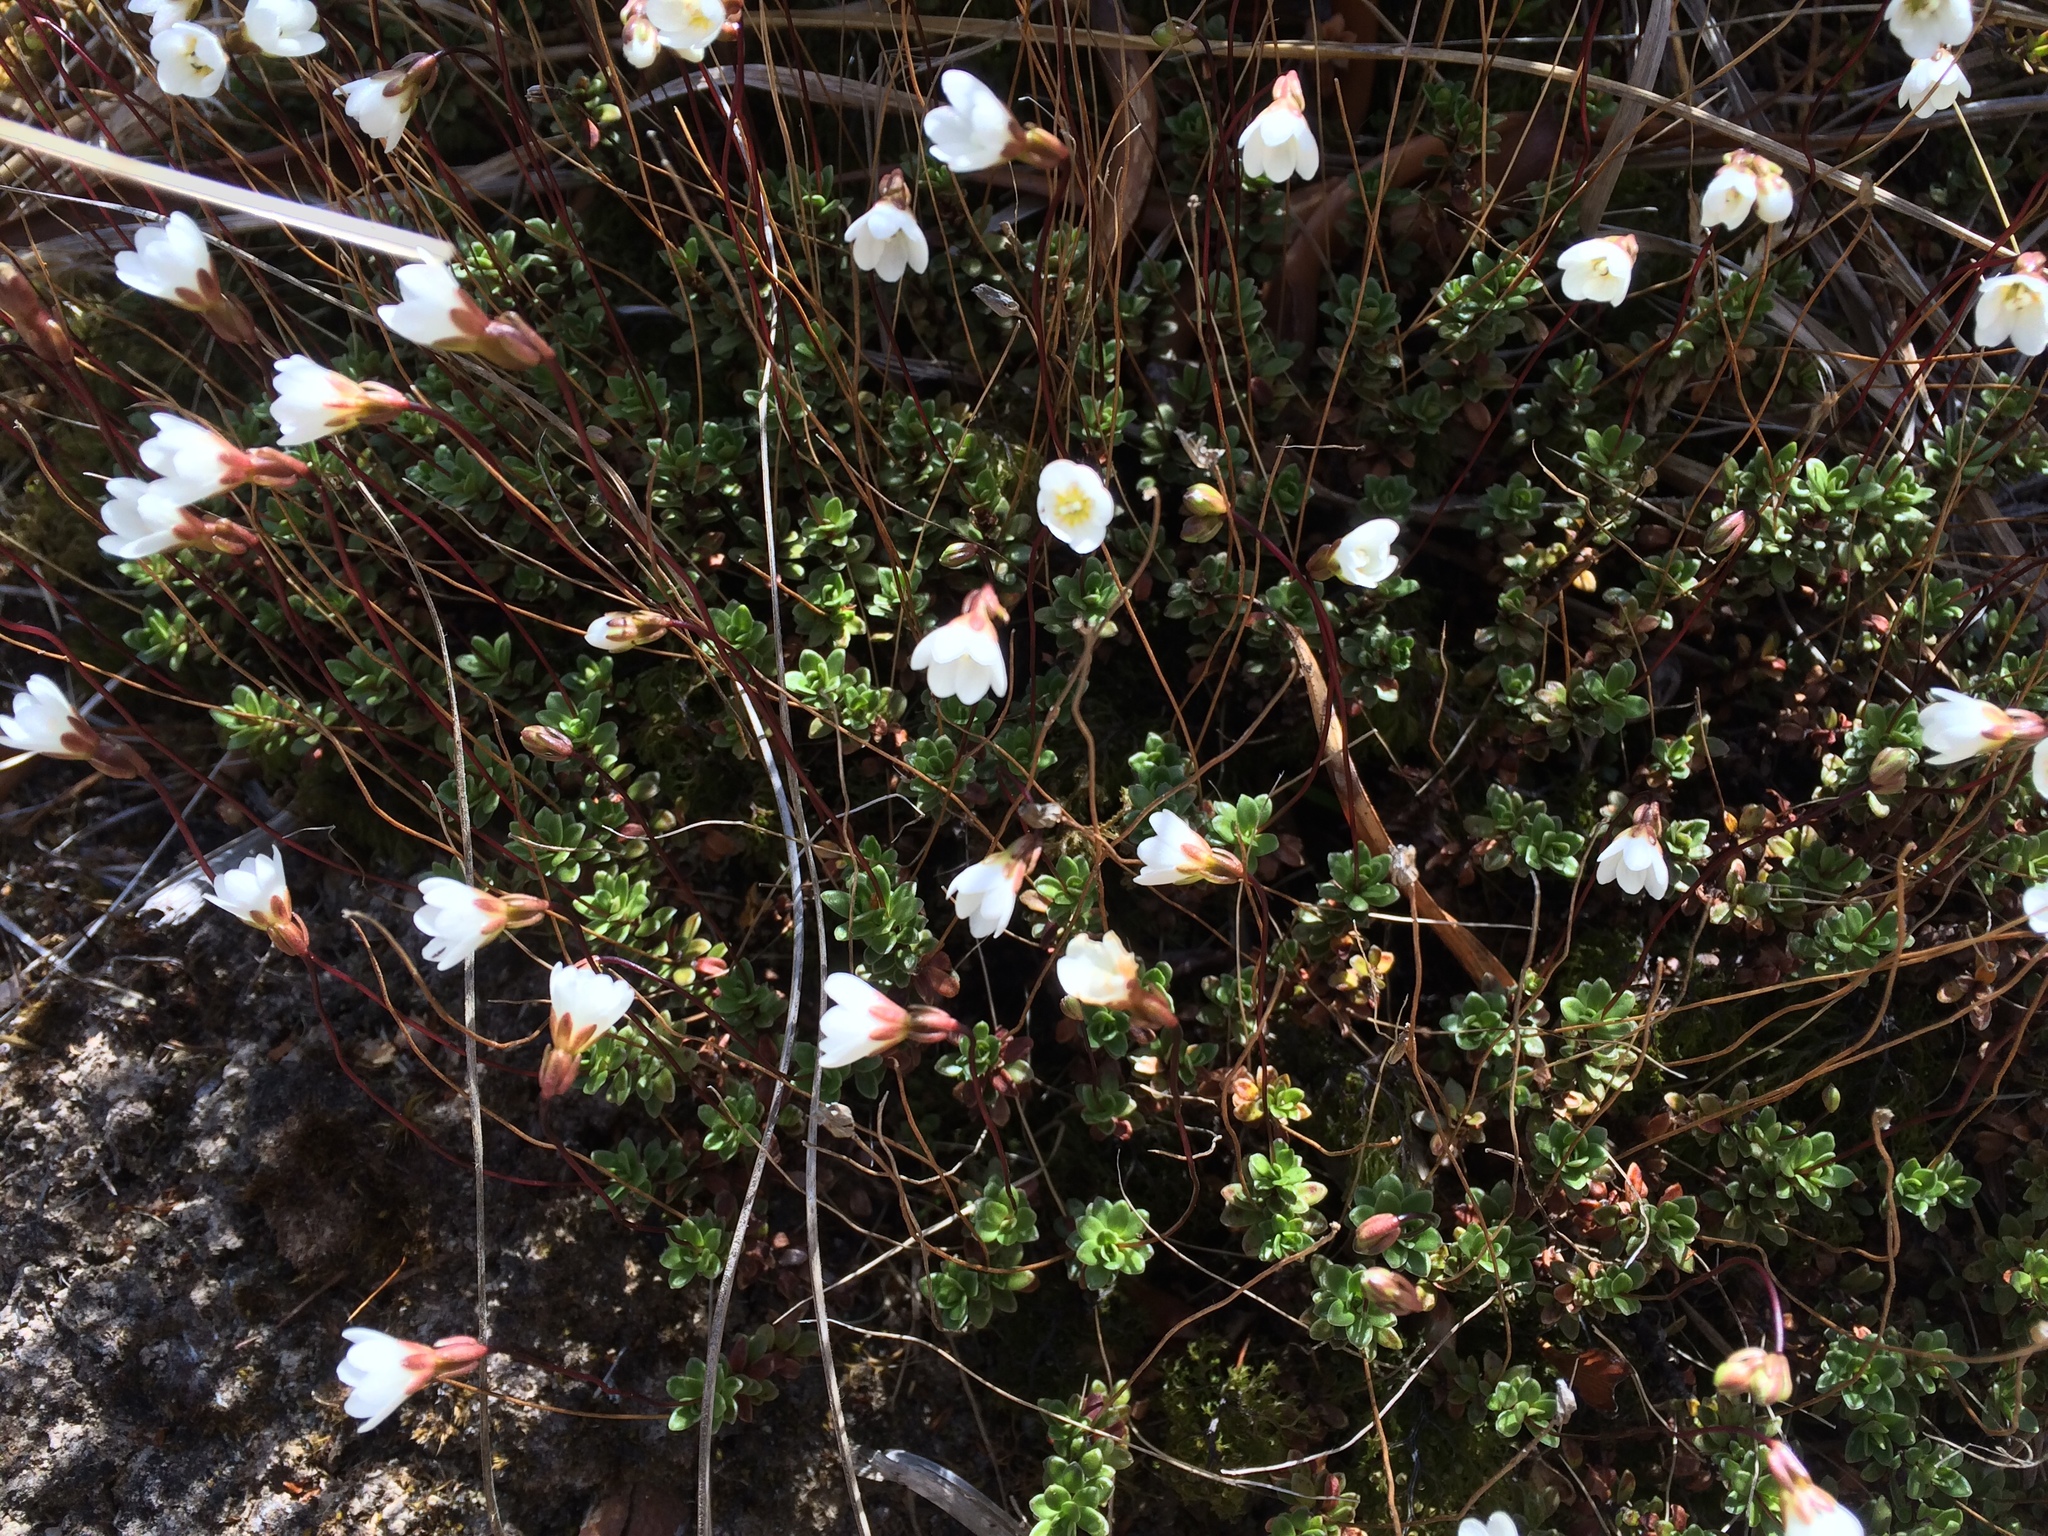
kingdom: Plantae
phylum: Tracheophyta
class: Magnoliopsida
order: Asterales
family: Stylidiaceae
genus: Forstera
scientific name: Forstera sedifolia
